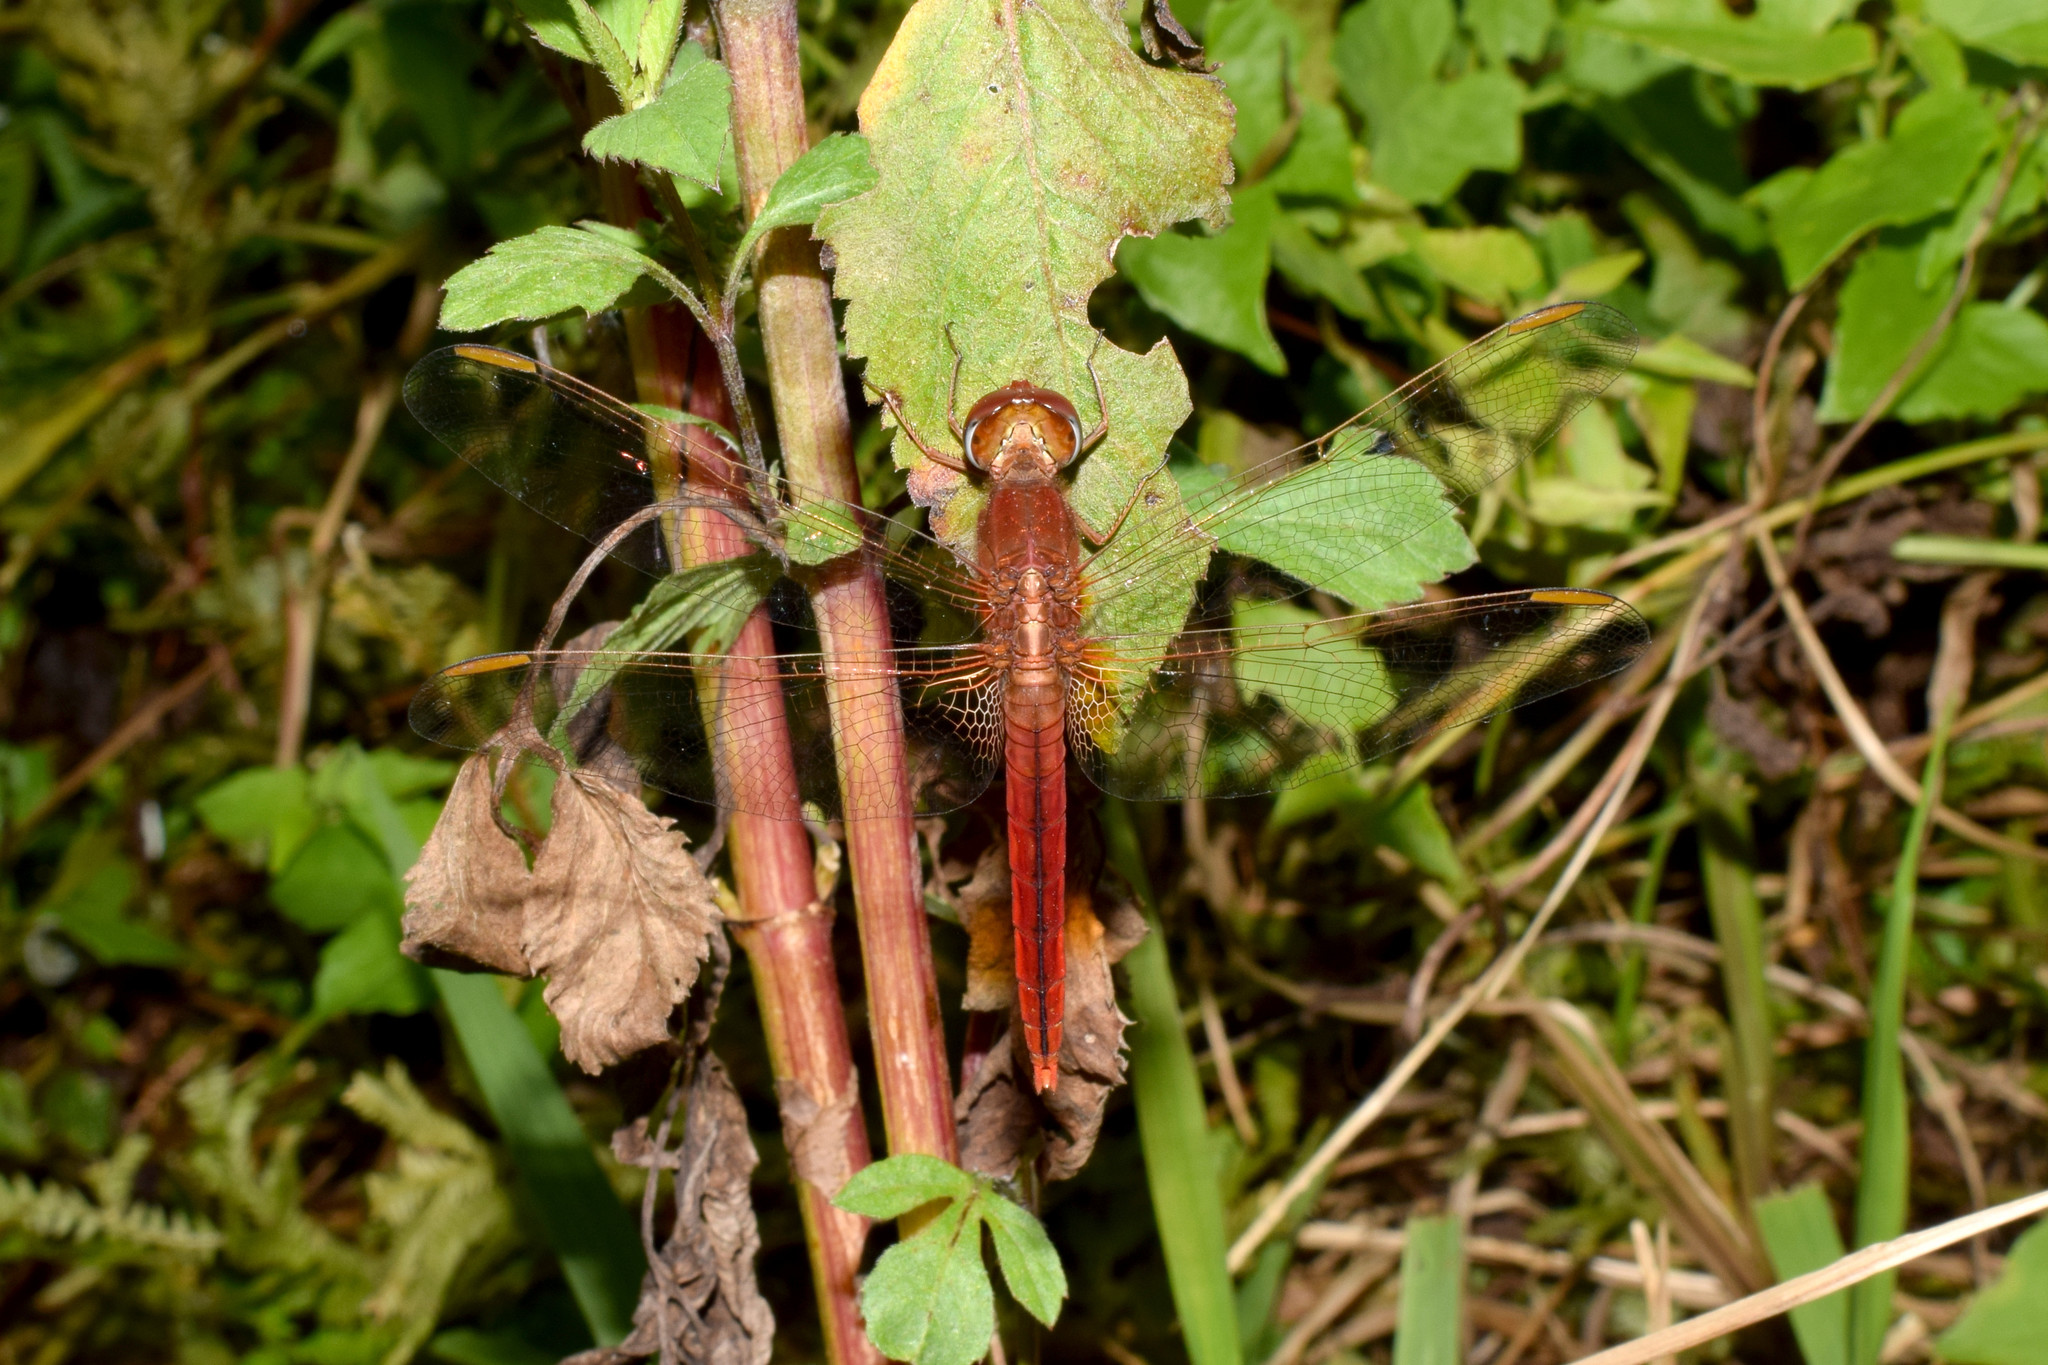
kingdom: Animalia
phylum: Arthropoda
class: Insecta
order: Odonata
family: Libellulidae
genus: Crocothemis
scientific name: Crocothemis servilia
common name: Scarlet skimmer
